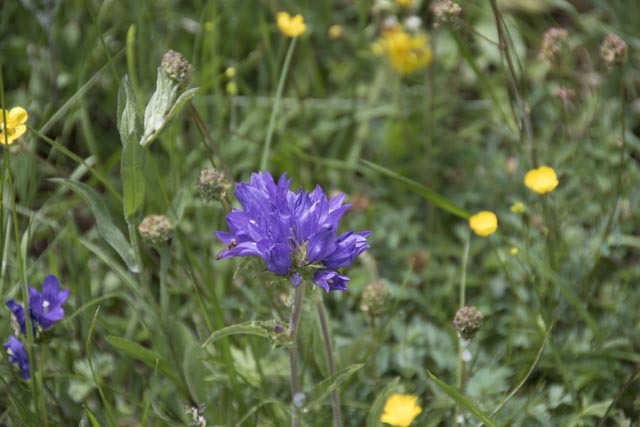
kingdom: Plantae
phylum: Tracheophyta
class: Magnoliopsida
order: Asterales
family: Campanulaceae
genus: Campanula
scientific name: Campanula glomerata
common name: Clustered bellflower
